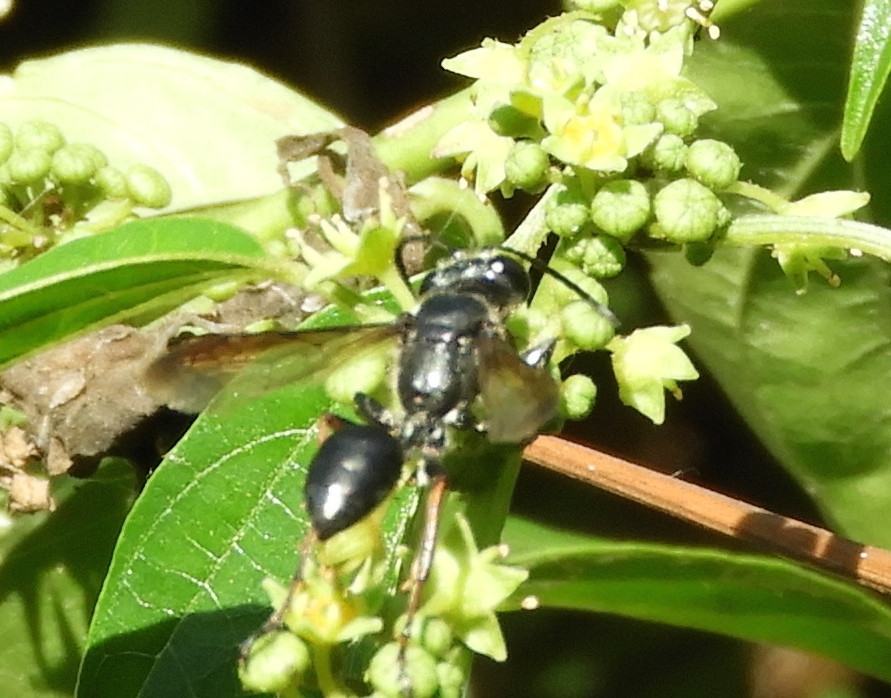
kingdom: Animalia
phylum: Arthropoda
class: Insecta
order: Hymenoptera
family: Sphecidae
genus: Isodontia
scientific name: Isodontia
